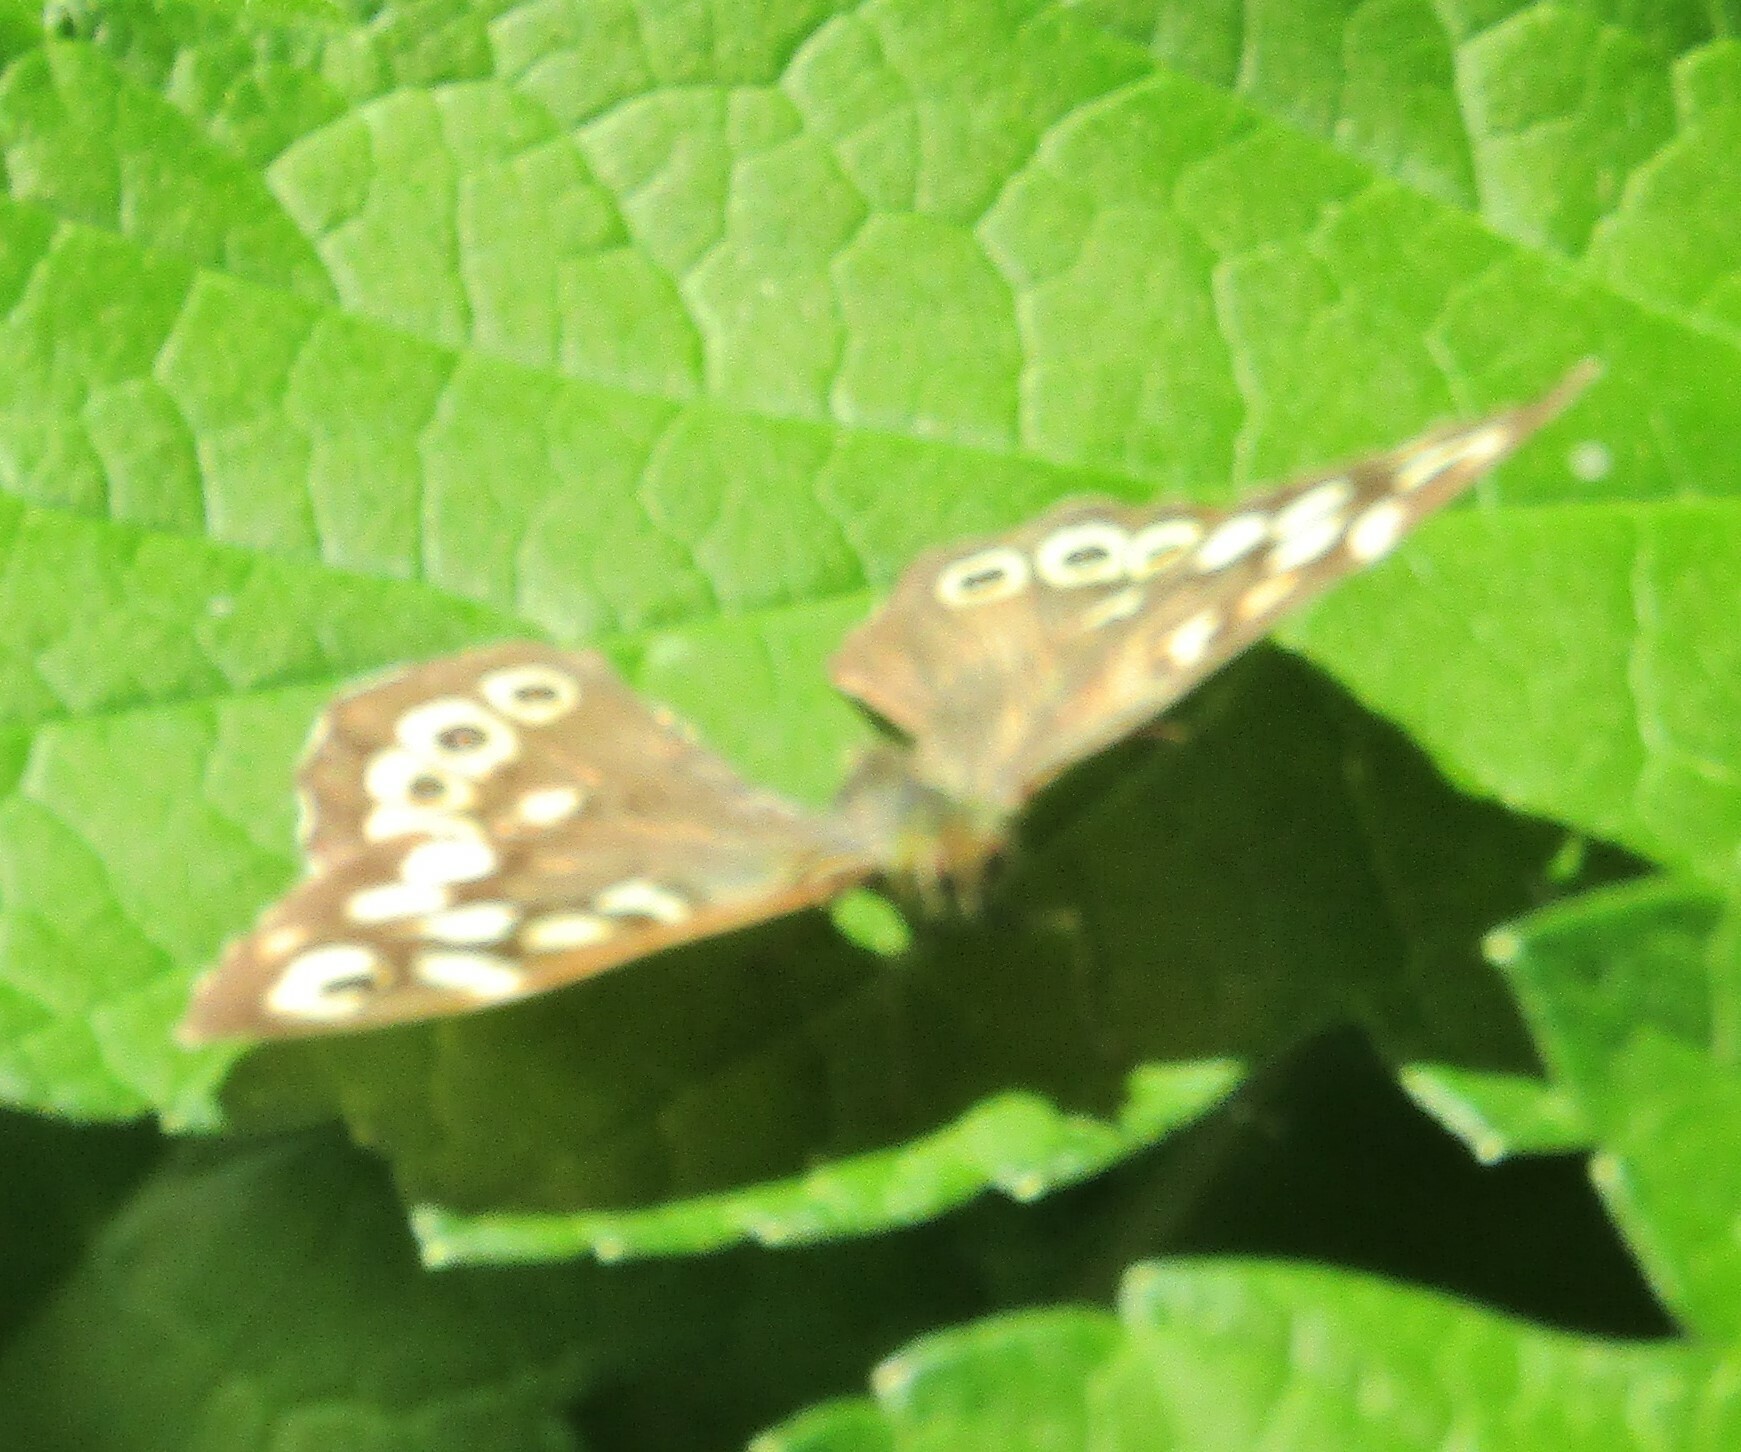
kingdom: Animalia
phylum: Arthropoda
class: Insecta
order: Lepidoptera
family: Nymphalidae
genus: Pararge
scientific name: Pararge aegeria
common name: Speckled wood
